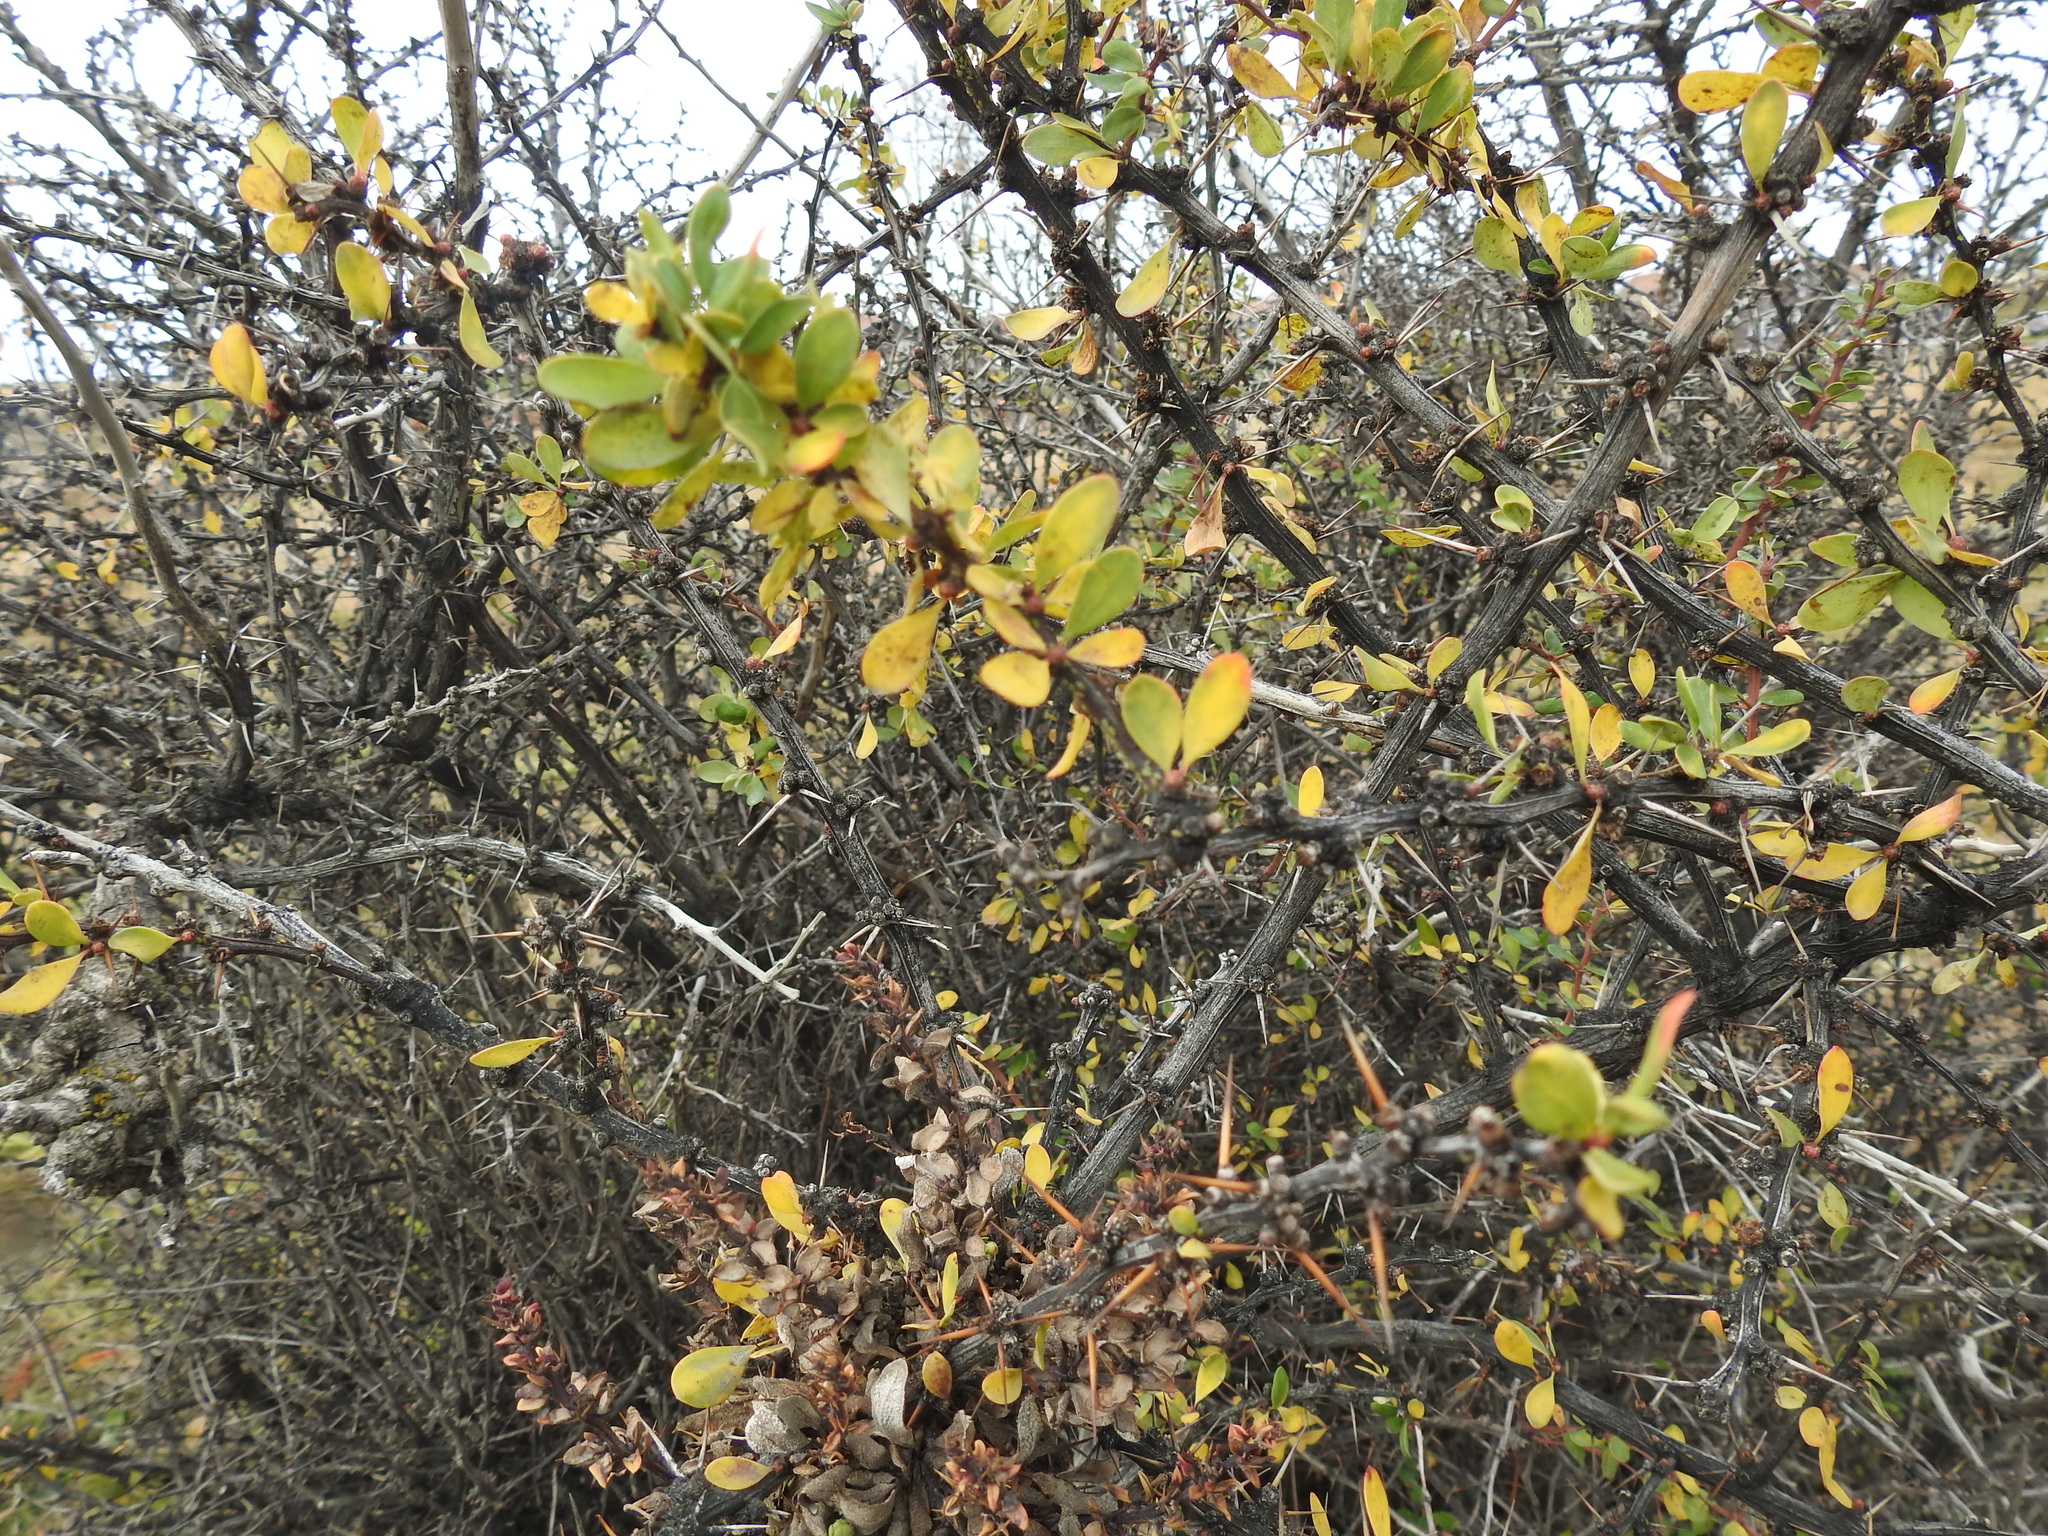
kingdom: Plantae
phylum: Tracheophyta
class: Magnoliopsida
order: Ranunculales
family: Berberidaceae
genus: Berberis
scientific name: Berberis microphylla
